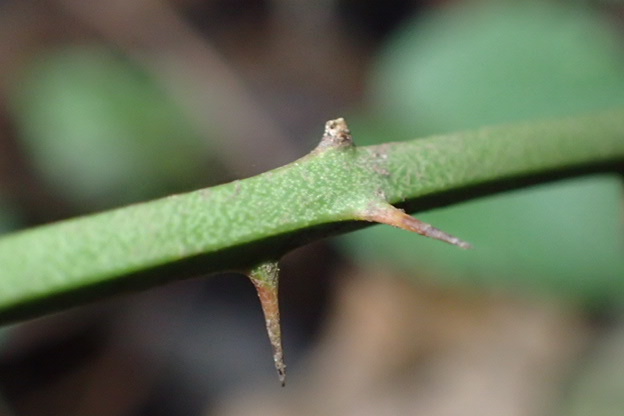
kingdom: Plantae
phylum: Tracheophyta
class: Liliopsida
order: Liliales
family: Smilacaceae
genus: Smilax
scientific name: Smilax bona-nox
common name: Catbrier
